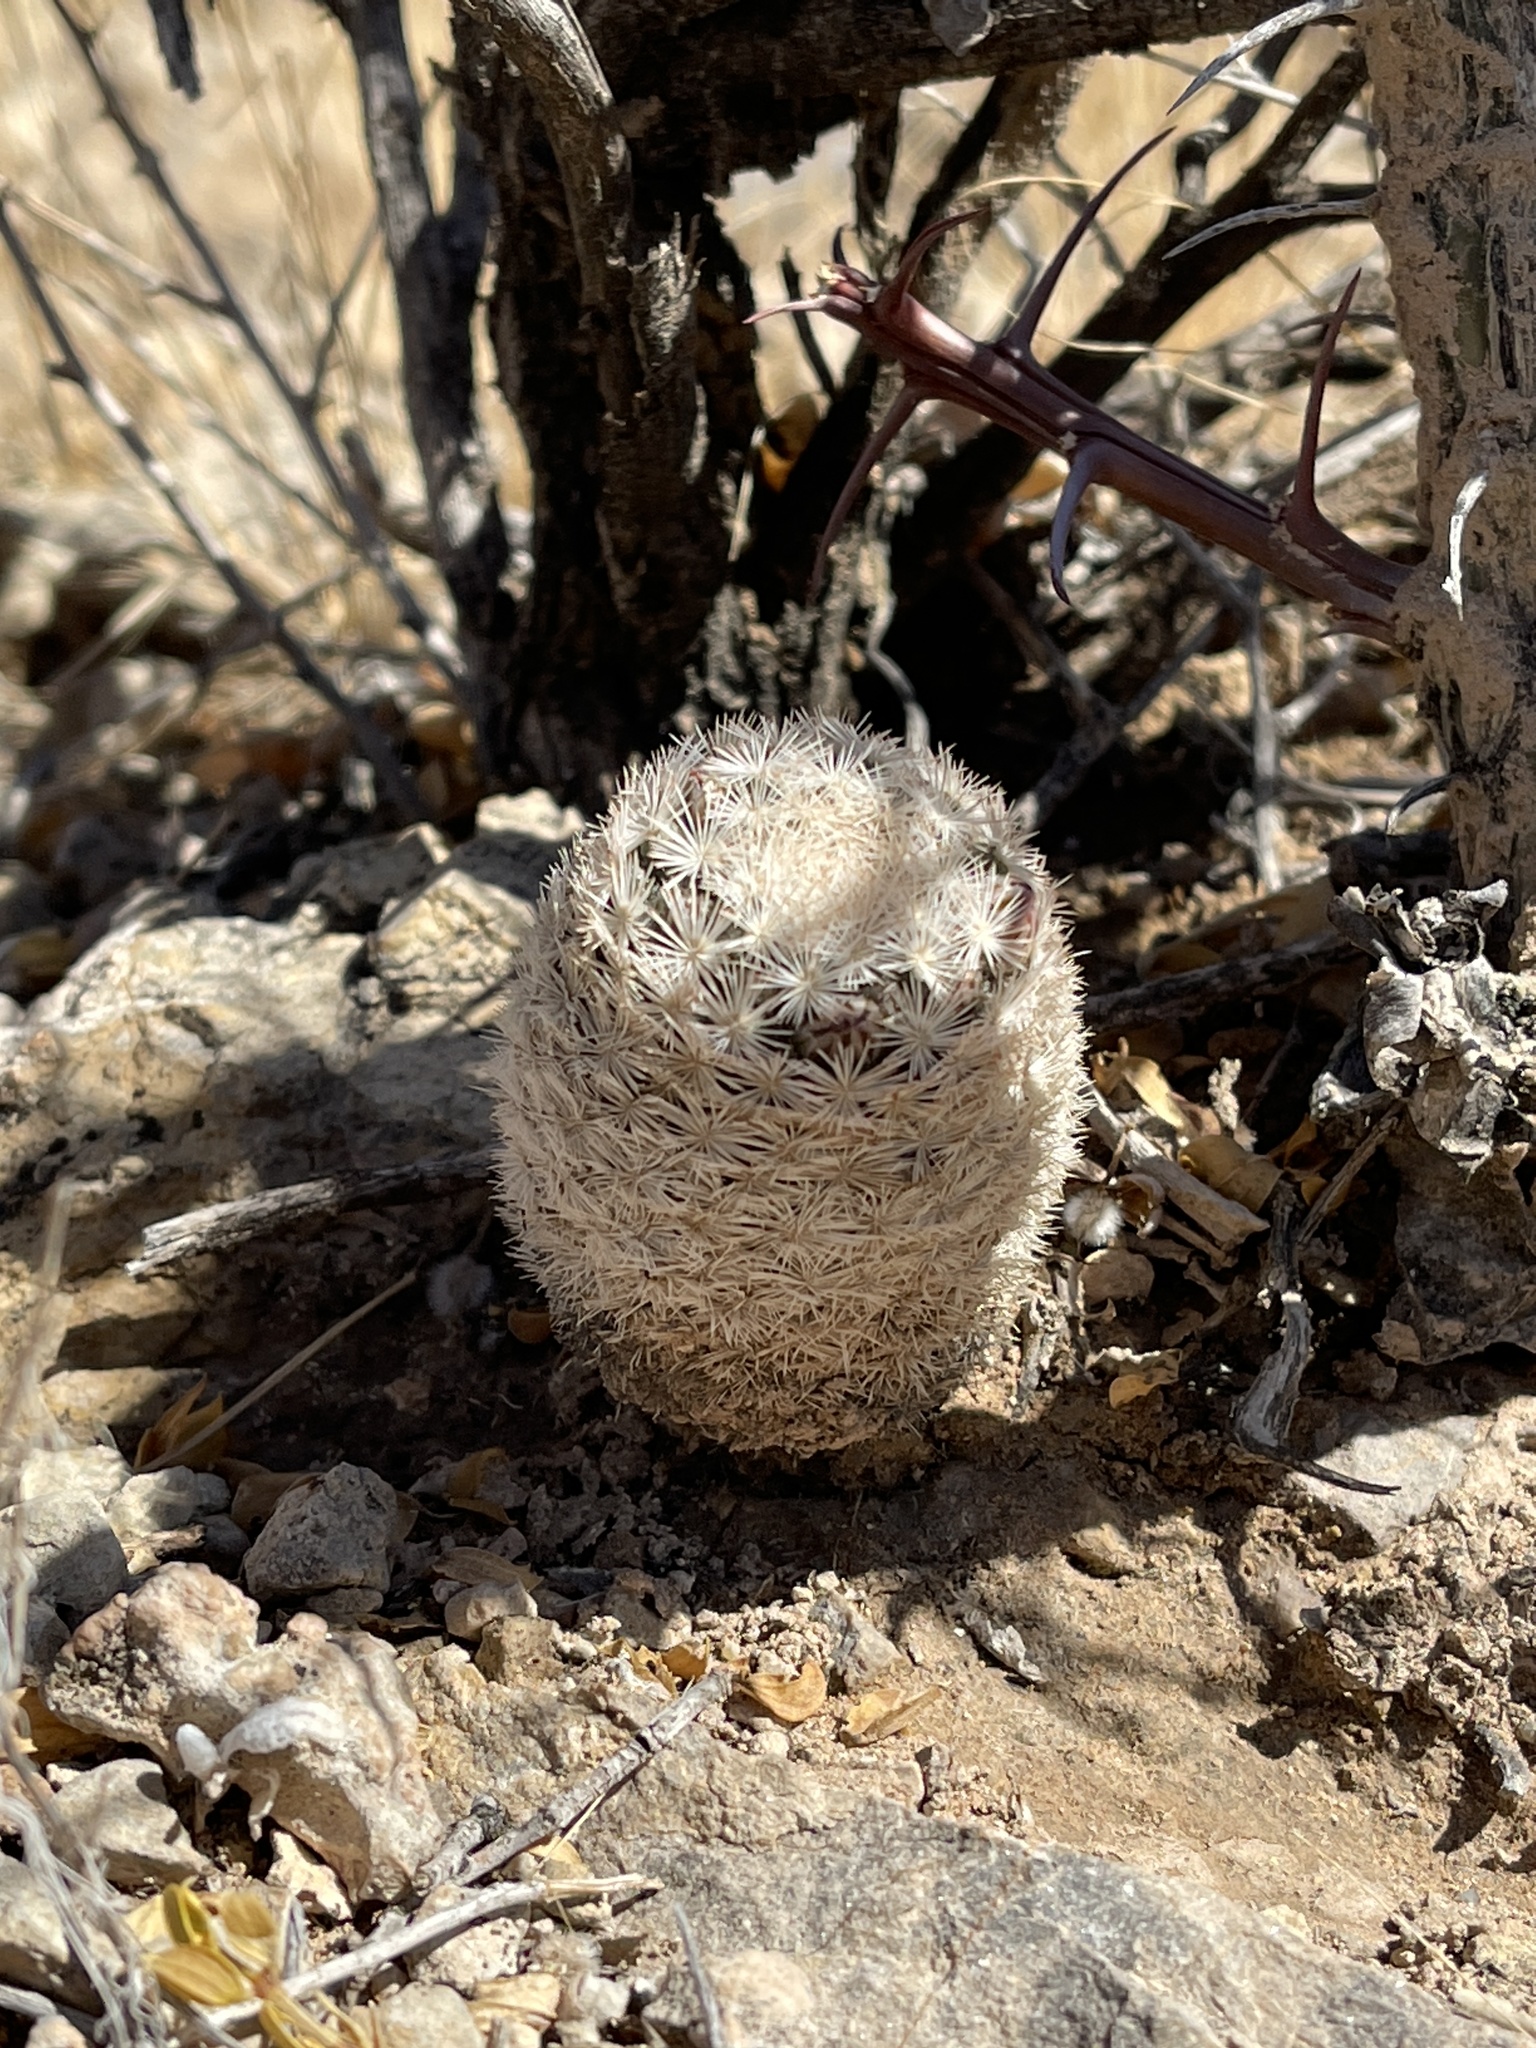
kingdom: Plantae
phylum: Tracheophyta
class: Magnoliopsida
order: Caryophyllales
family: Cactaceae
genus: Mammillaria
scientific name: Mammillaria lasiacantha
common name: Lace-spine nipple cactus
